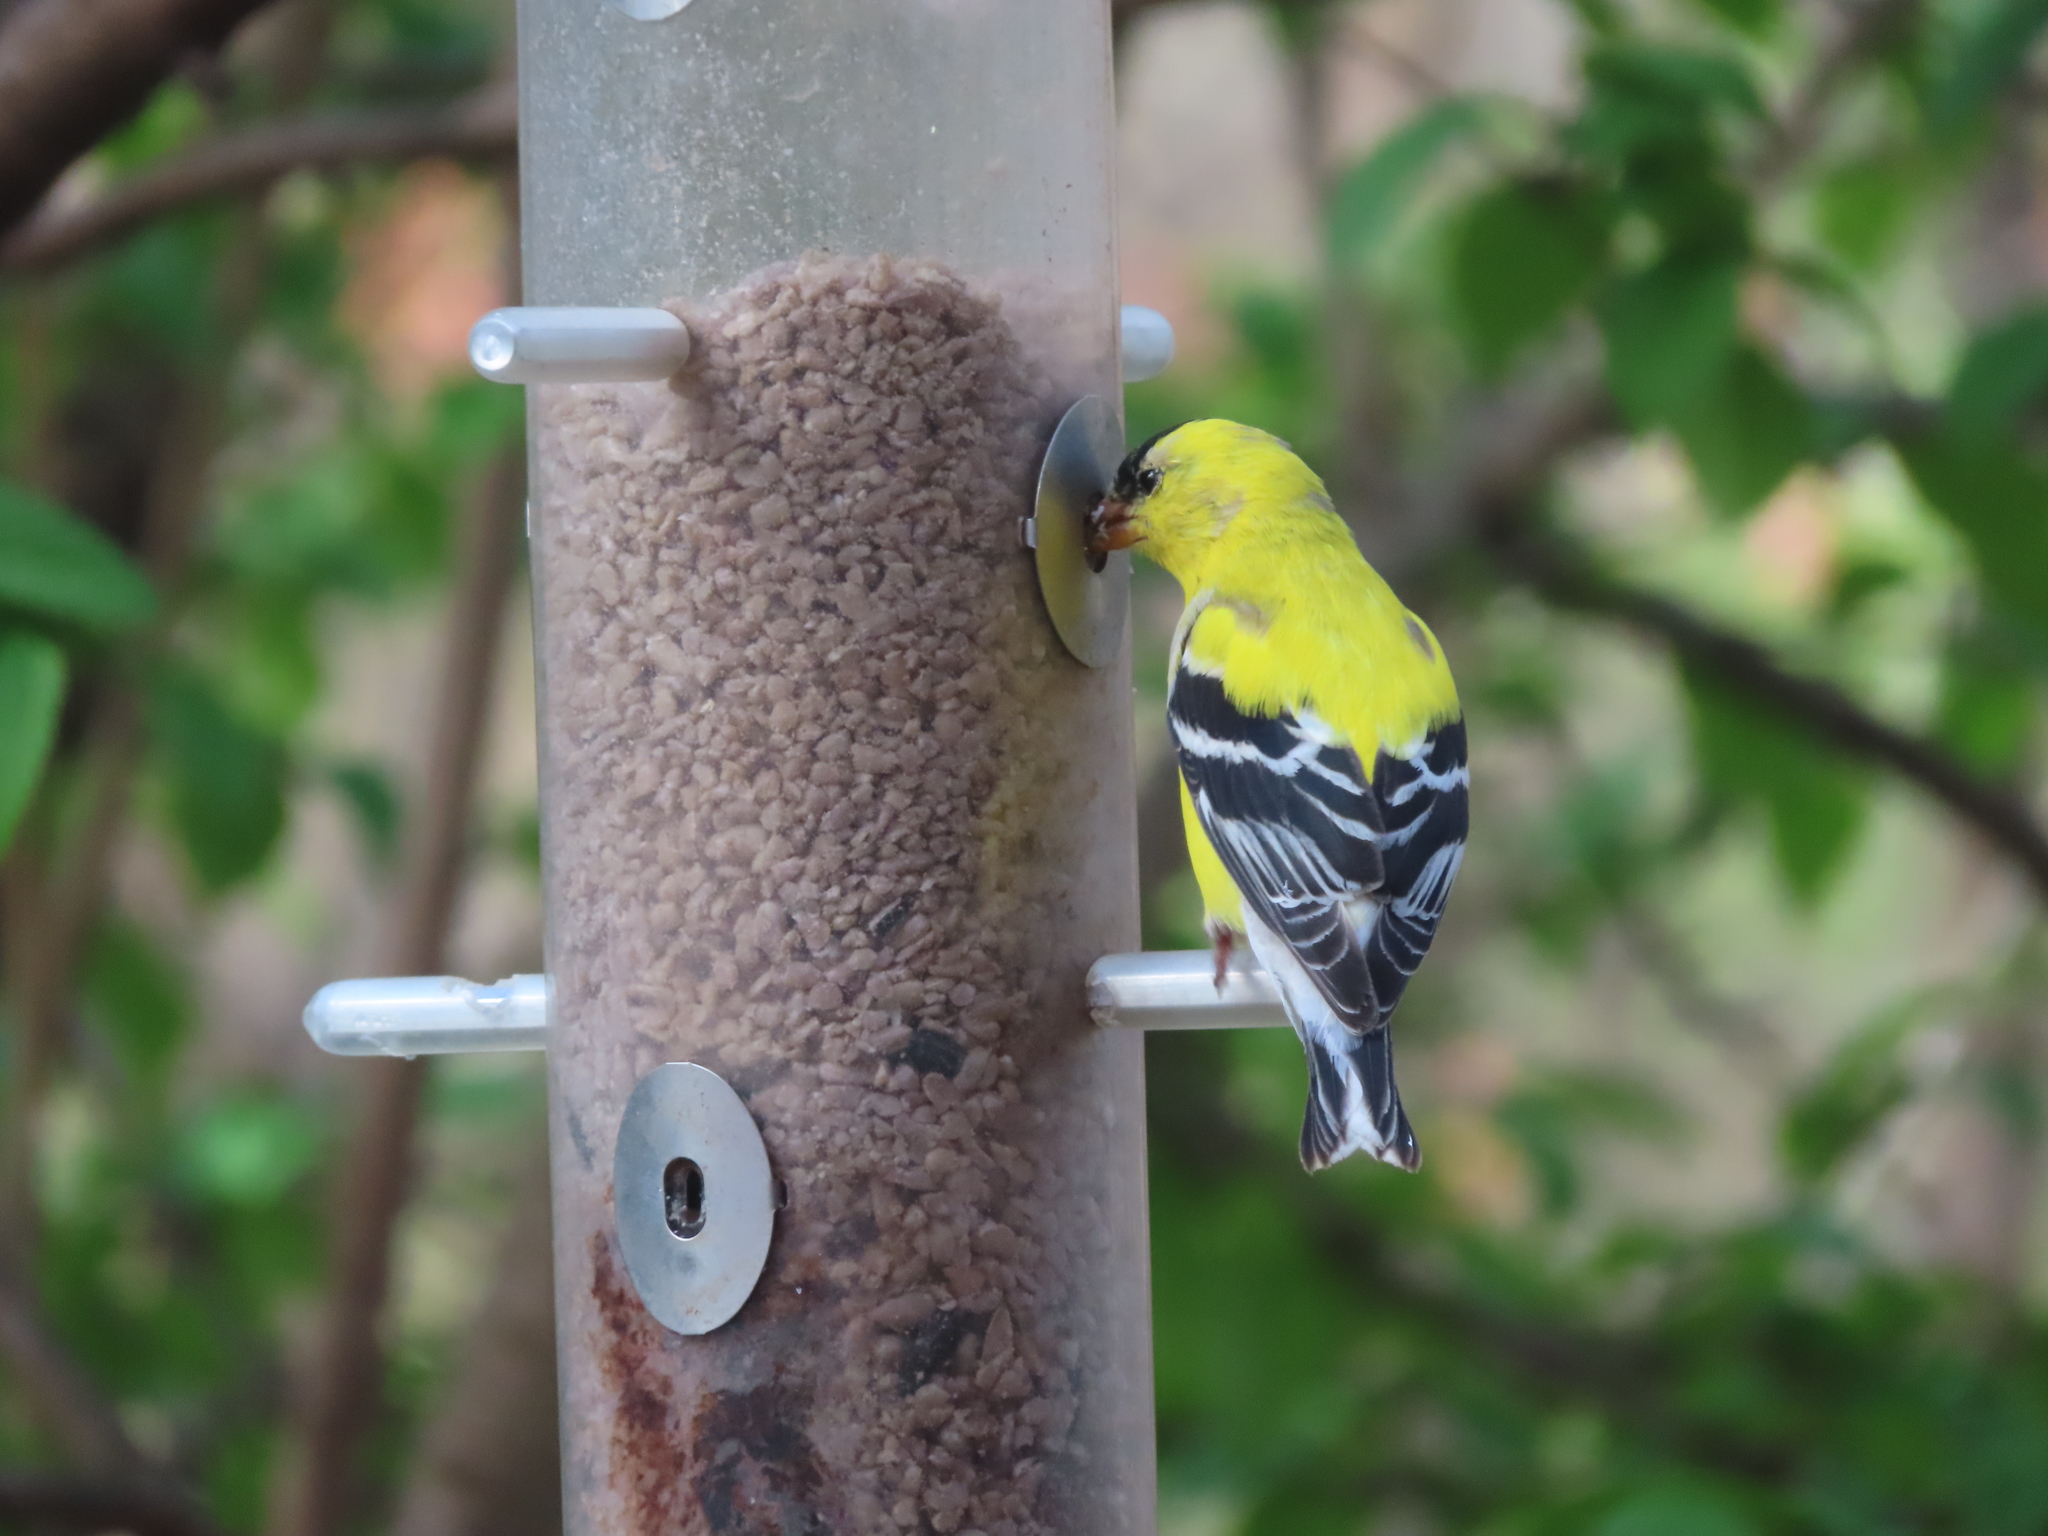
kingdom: Animalia
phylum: Chordata
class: Aves
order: Passeriformes
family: Fringillidae
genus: Spinus
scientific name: Spinus tristis
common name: American goldfinch
